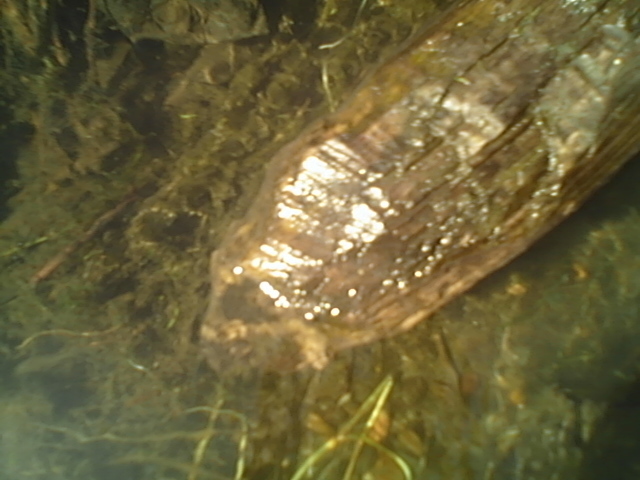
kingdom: Animalia
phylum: Chordata
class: Mammalia
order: Rodentia
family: Castoridae
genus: Castor
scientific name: Castor canadensis
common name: American beaver
